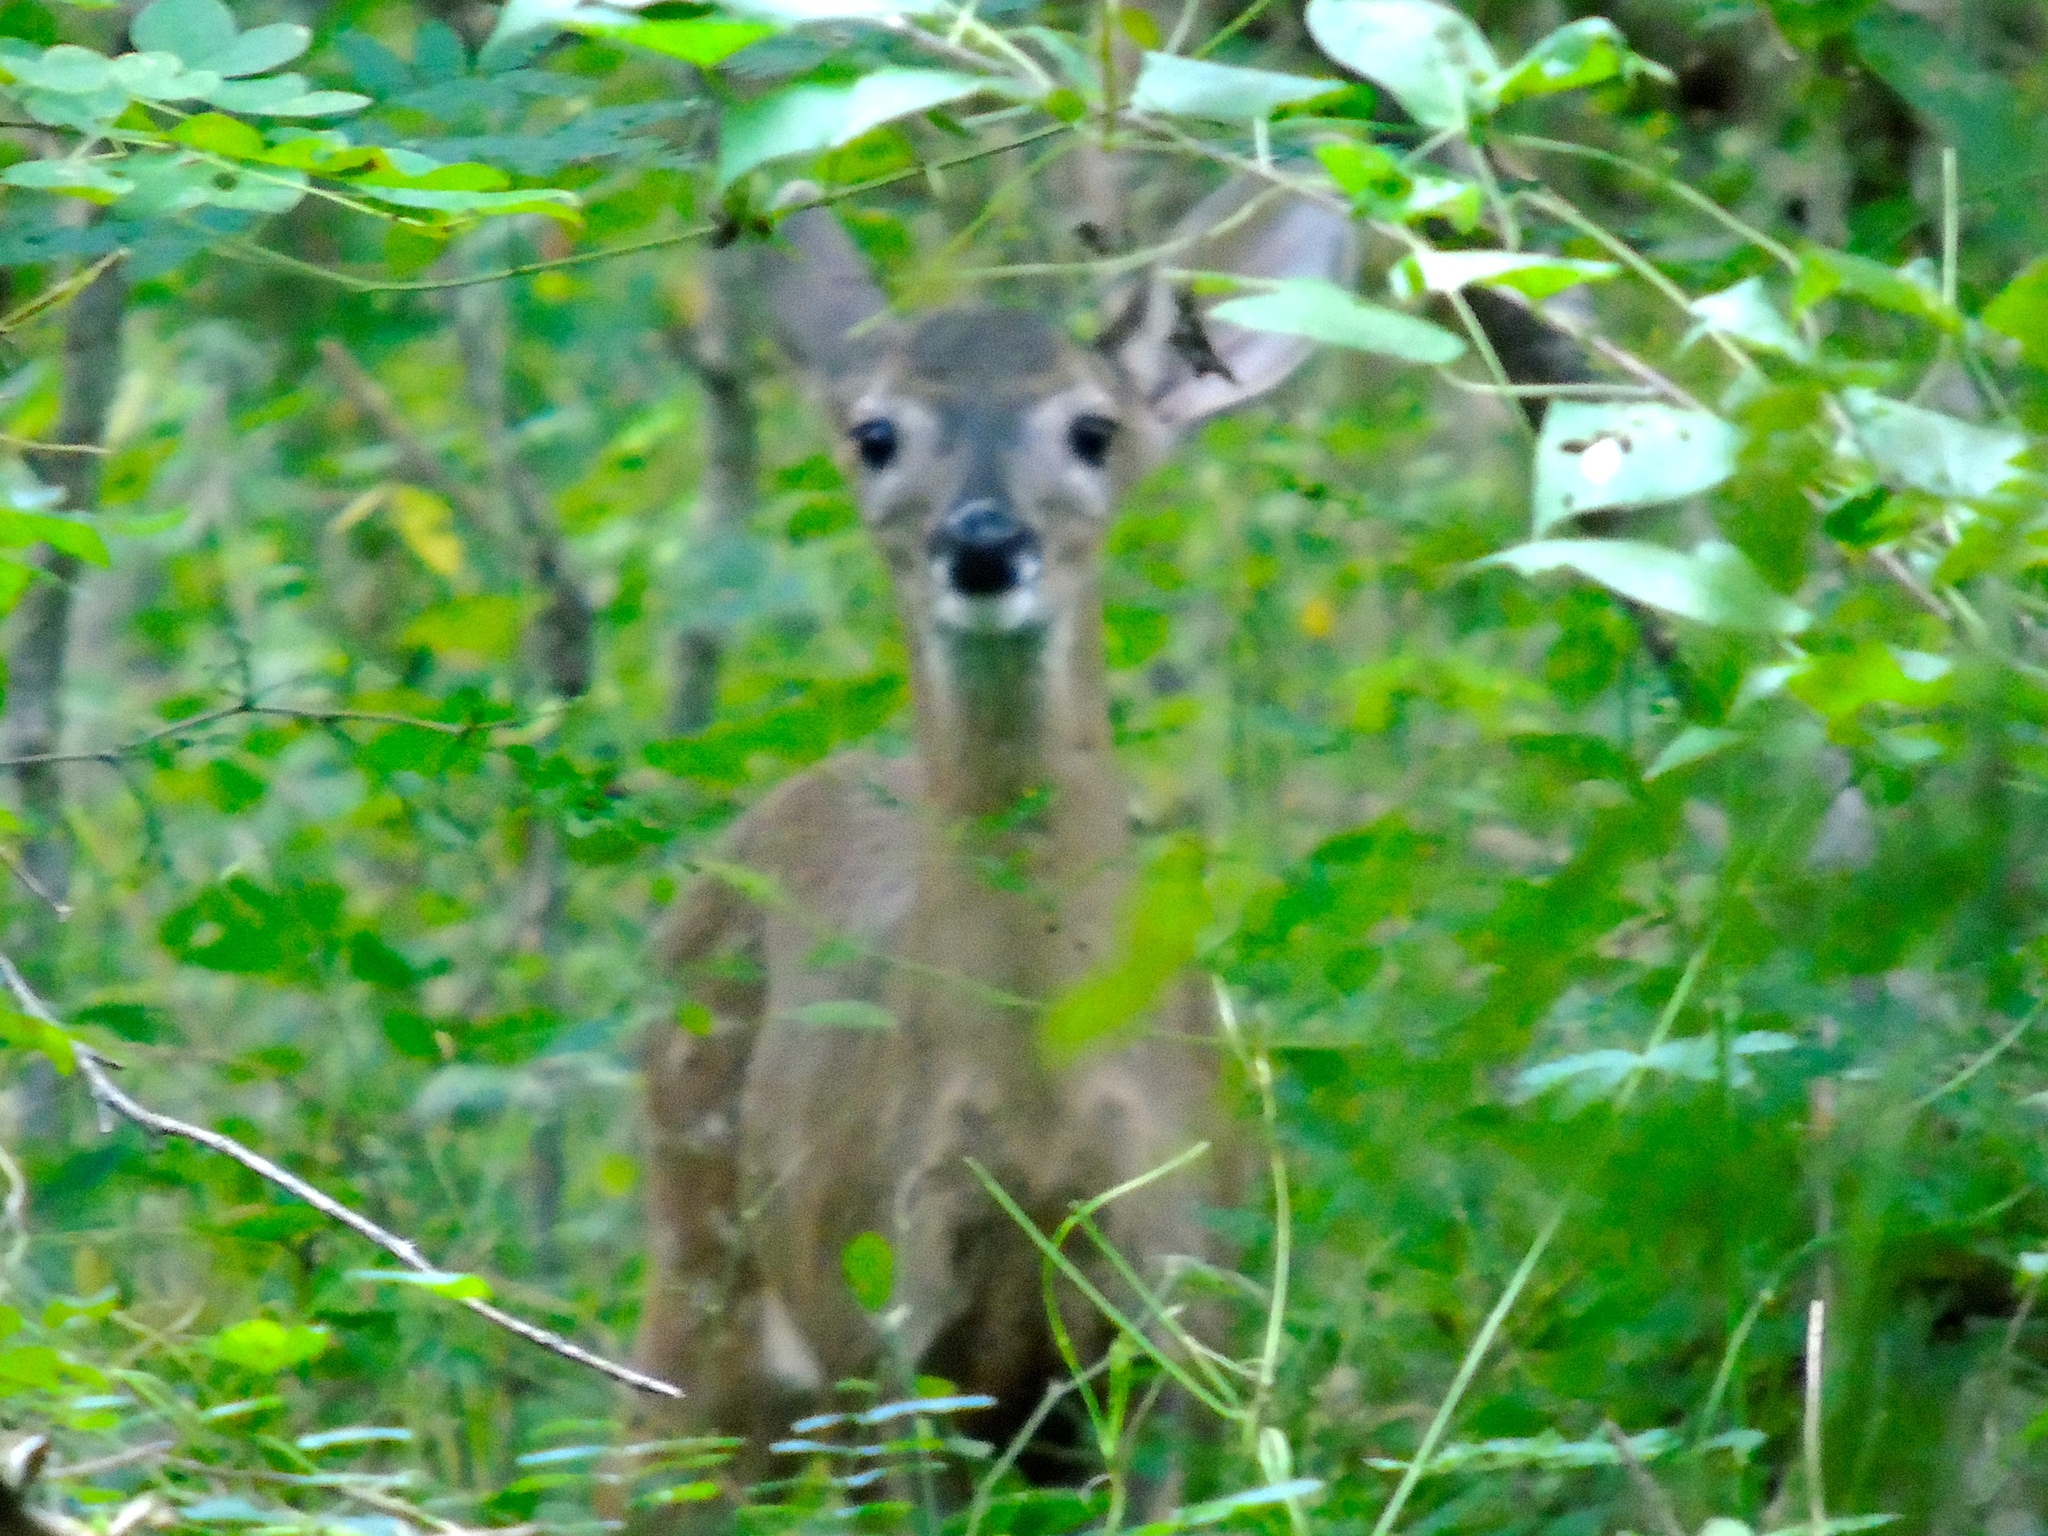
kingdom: Animalia
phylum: Chordata
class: Mammalia
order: Artiodactyla
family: Cervidae
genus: Odocoileus
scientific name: Odocoileus virginianus
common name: White-tailed deer
